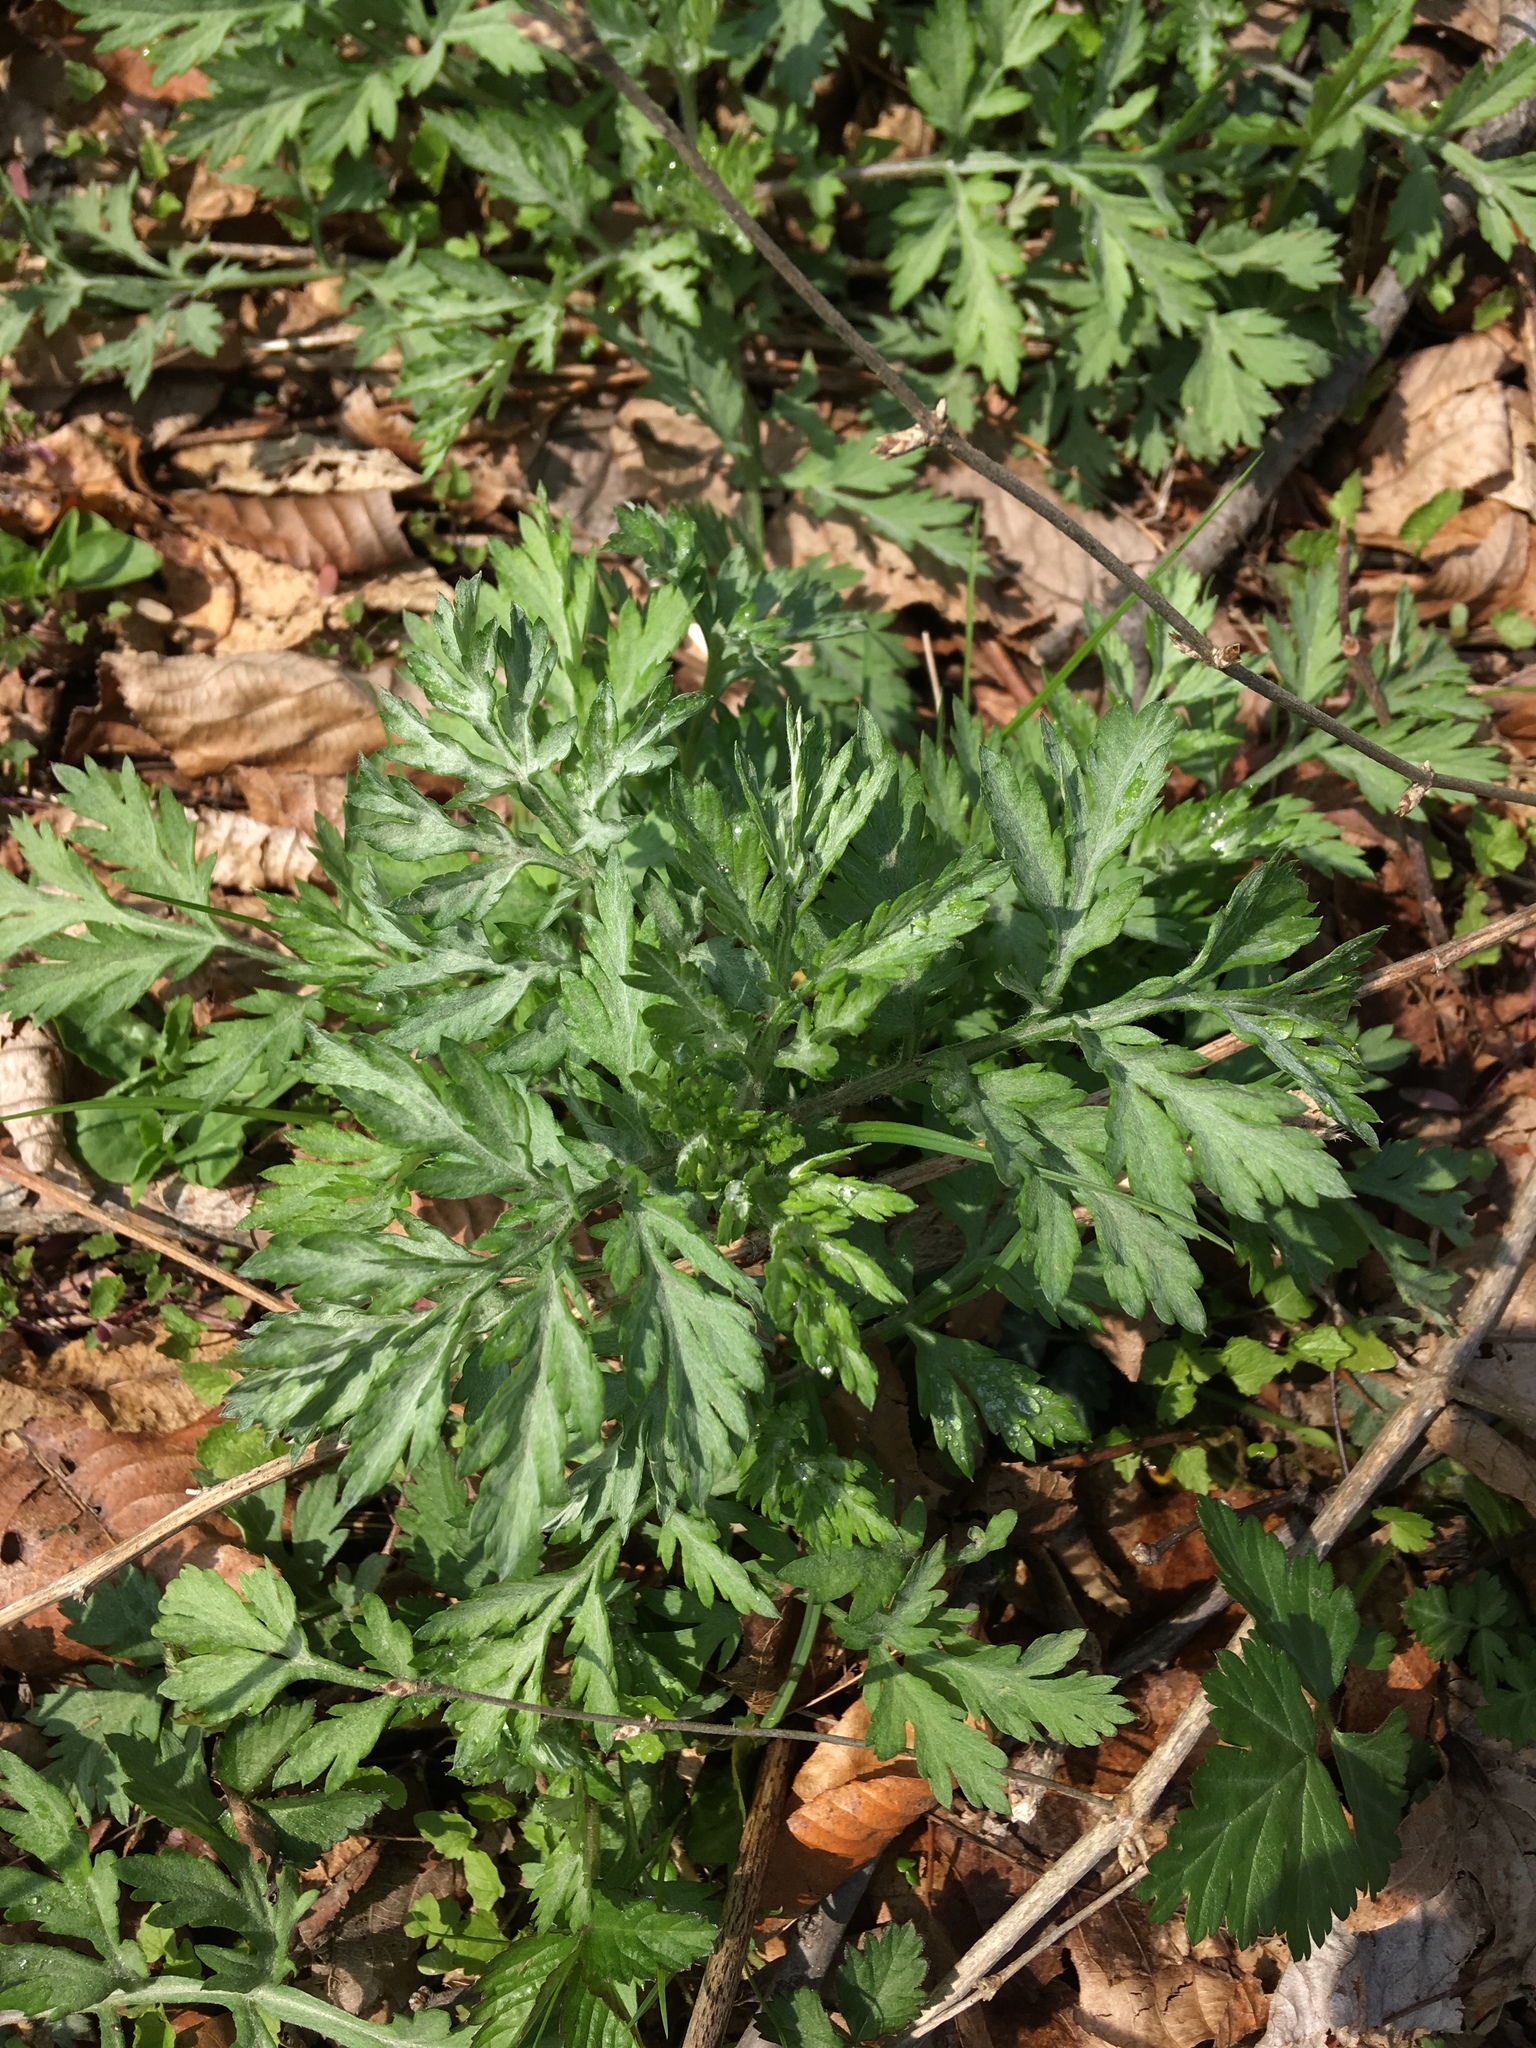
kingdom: Plantae
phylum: Tracheophyta
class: Magnoliopsida
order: Asterales
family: Asteraceae
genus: Artemisia
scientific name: Artemisia vulgaris
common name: Mugwort
